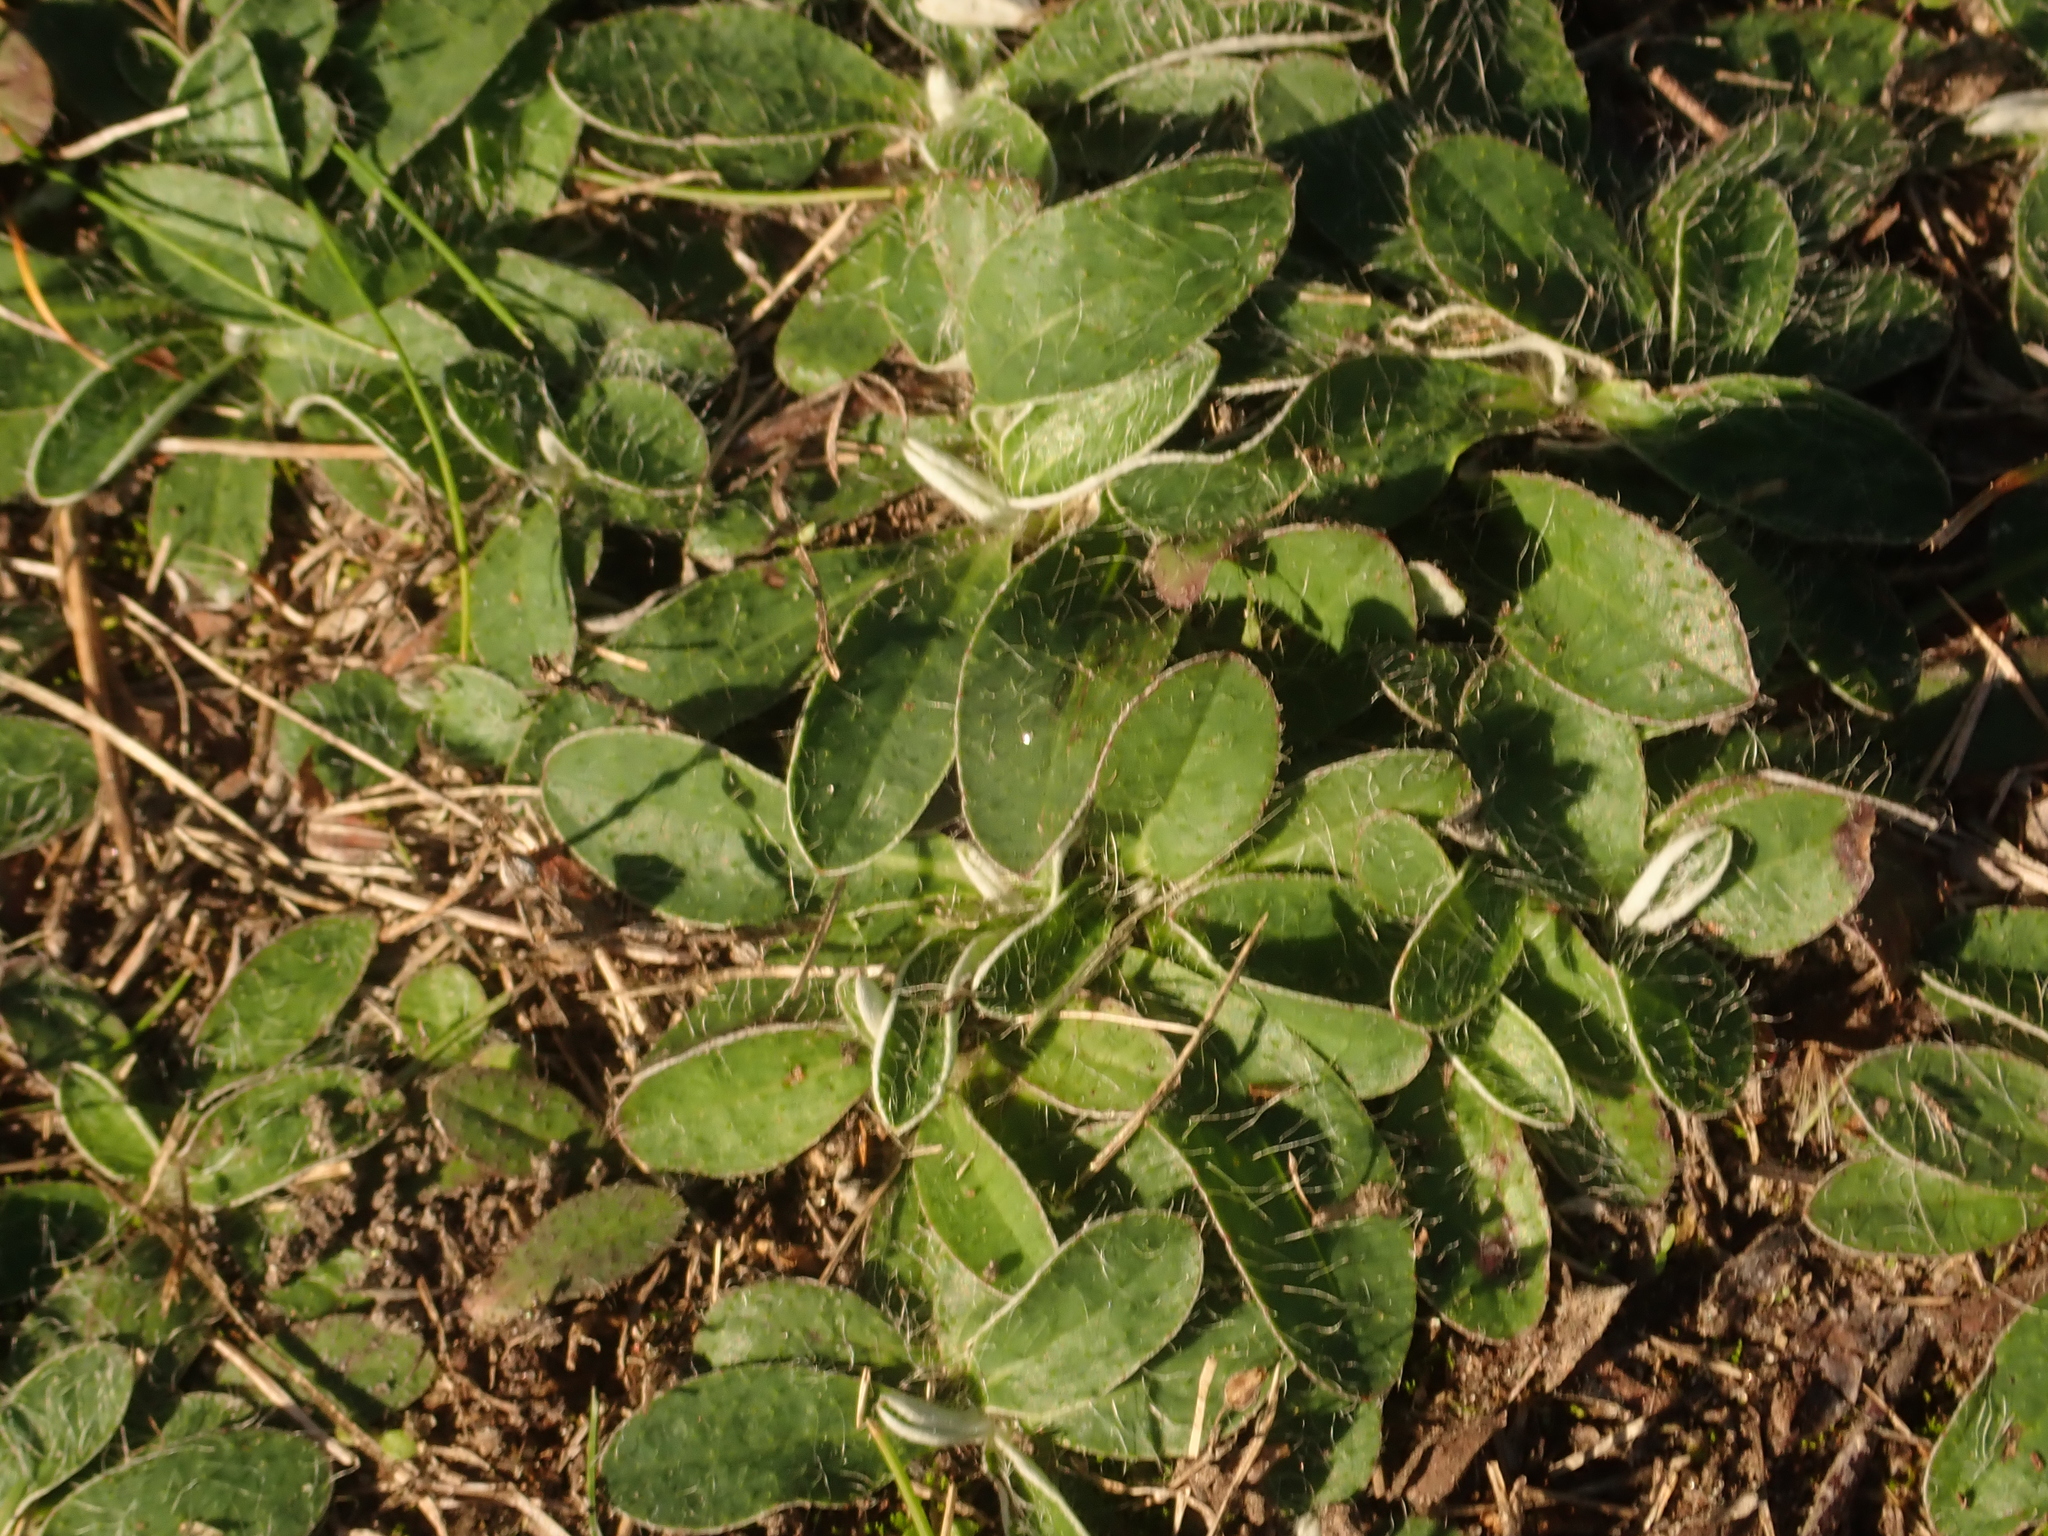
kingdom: Plantae
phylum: Tracheophyta
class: Magnoliopsida
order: Asterales
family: Asteraceae
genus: Pilosella
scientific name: Pilosella officinarum
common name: Mouse-ear hawkweed
